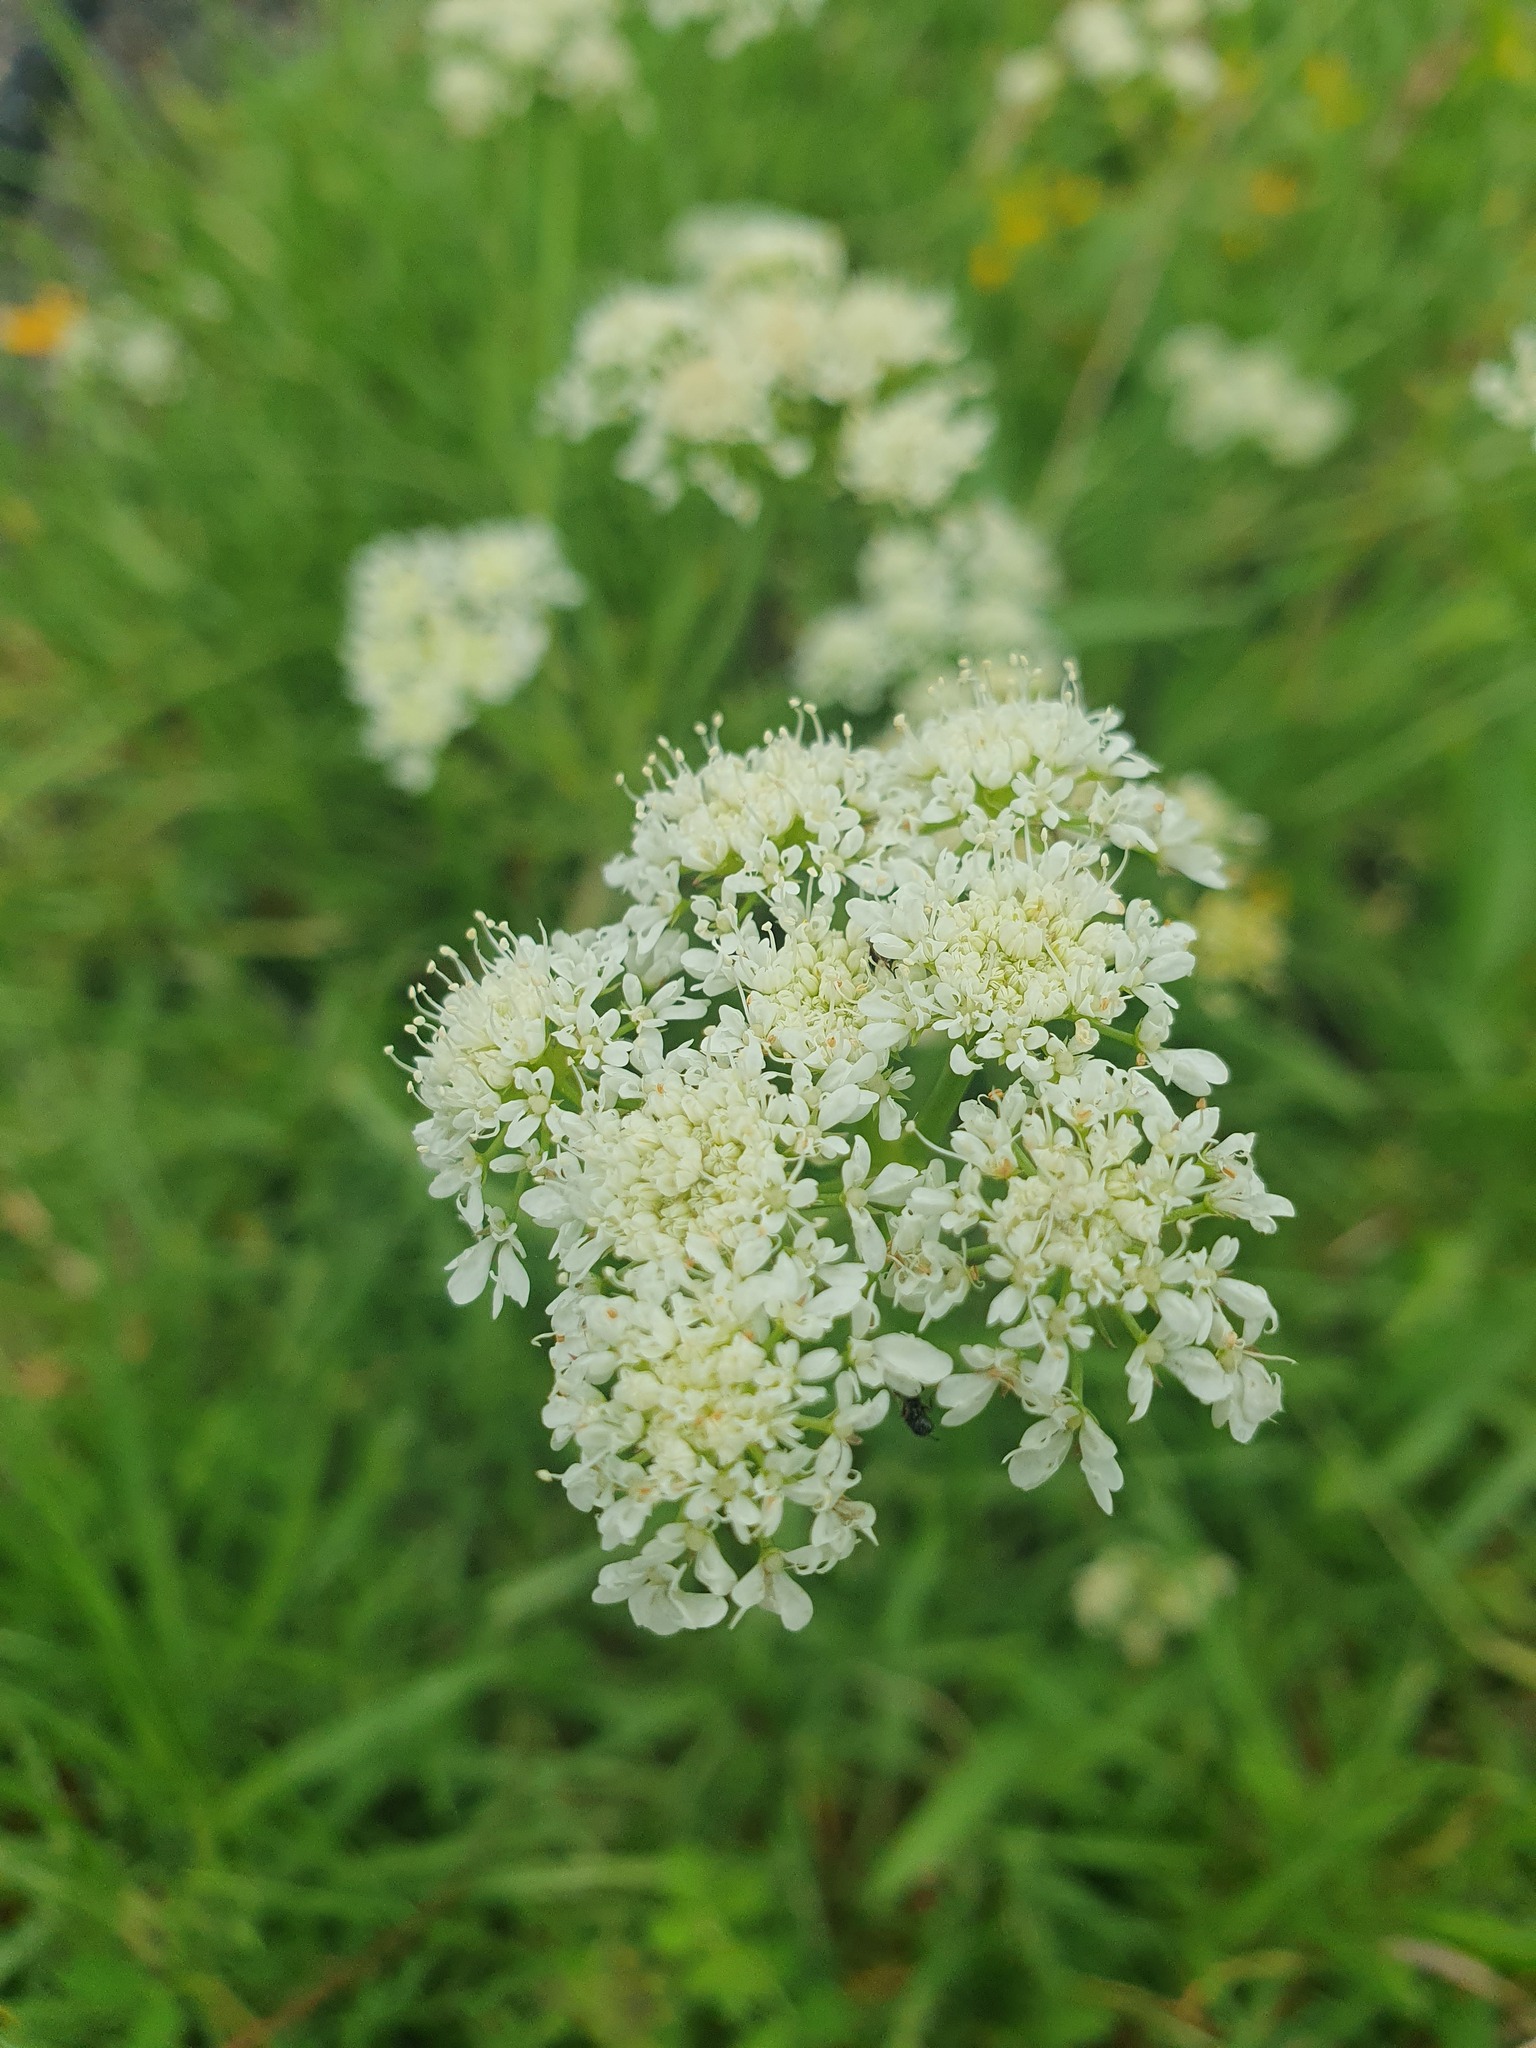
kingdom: Plantae
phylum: Tracheophyta
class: Magnoliopsida
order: Apiales
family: Apiaceae
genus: Oenanthe
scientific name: Oenanthe pimpinelloides
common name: Corky-fruited water-dropwort
